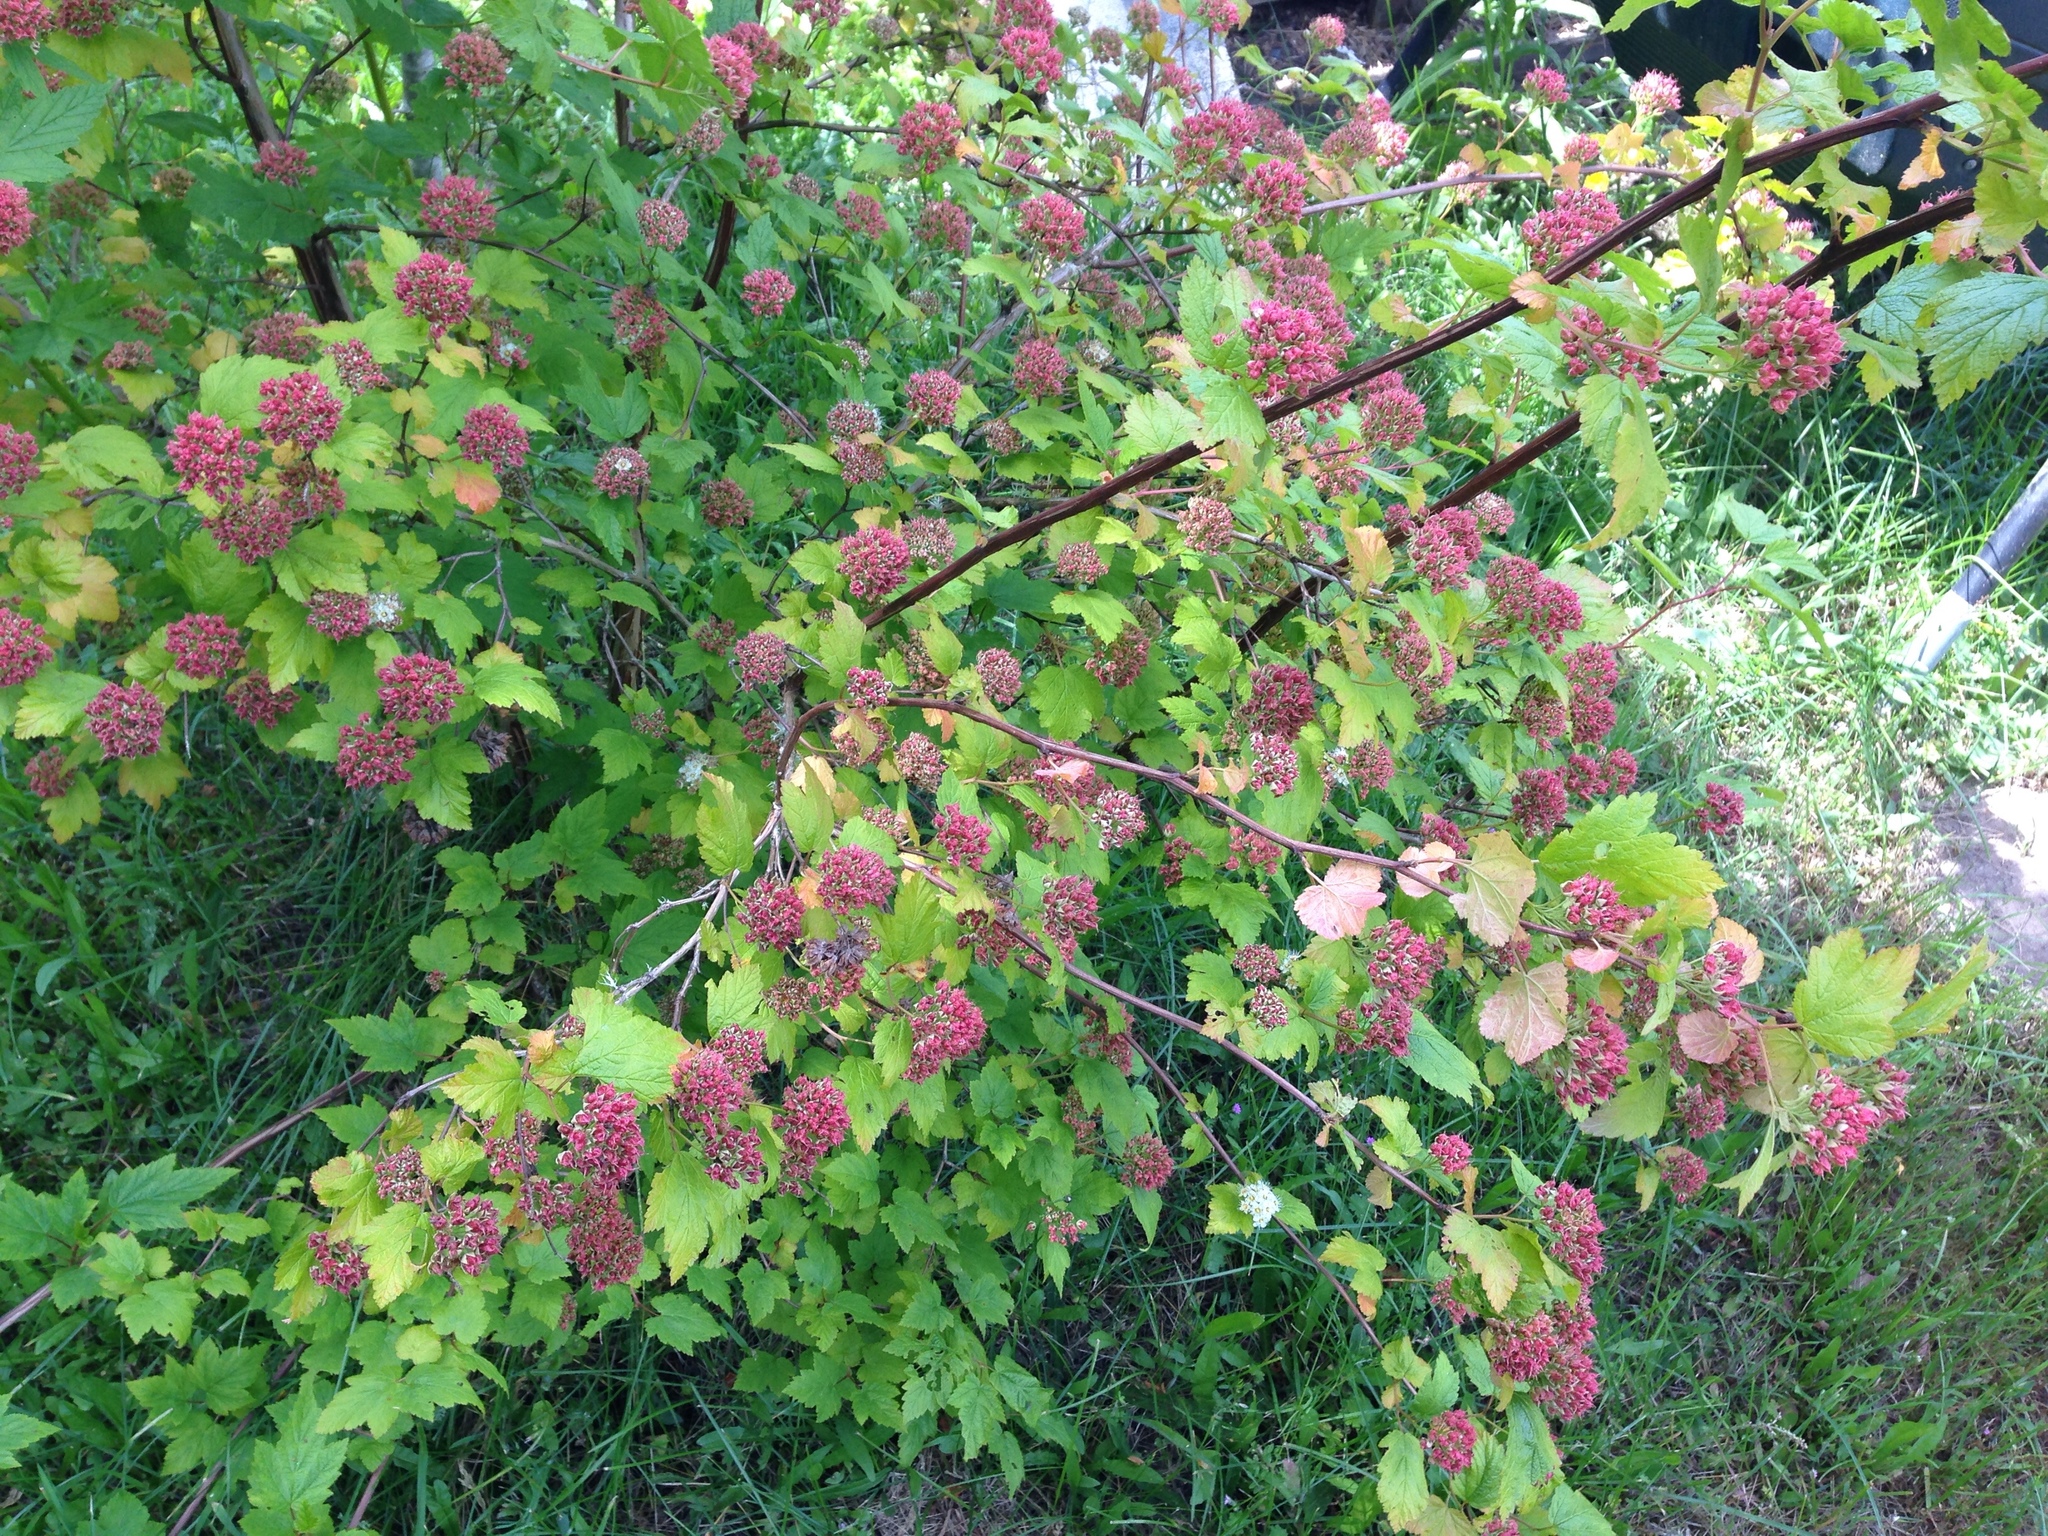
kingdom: Plantae
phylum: Tracheophyta
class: Magnoliopsida
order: Rosales
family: Rosaceae
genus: Physocarpus
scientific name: Physocarpus capitatus
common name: Pacific ninebark
